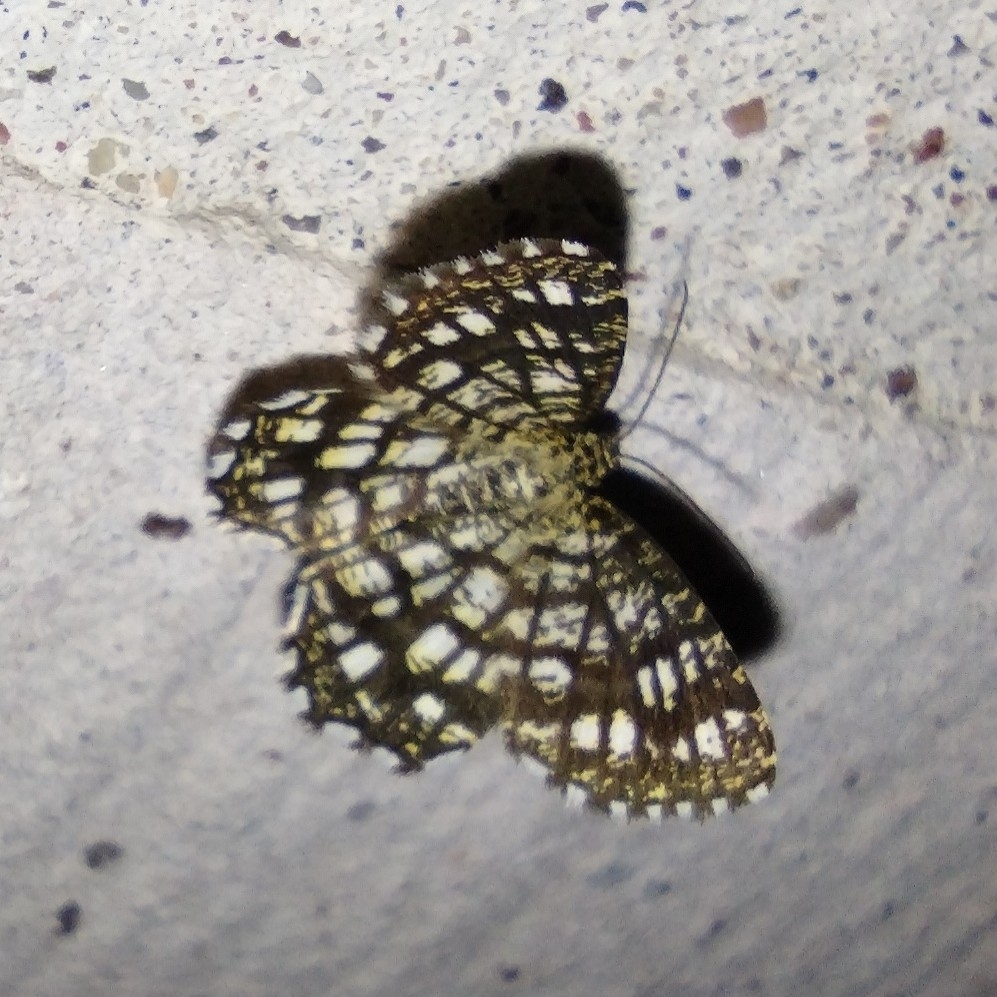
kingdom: Animalia
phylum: Arthropoda
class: Insecta
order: Lepidoptera
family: Geometridae
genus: Chiasmia
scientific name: Chiasmia clathrata
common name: Latticed heath
